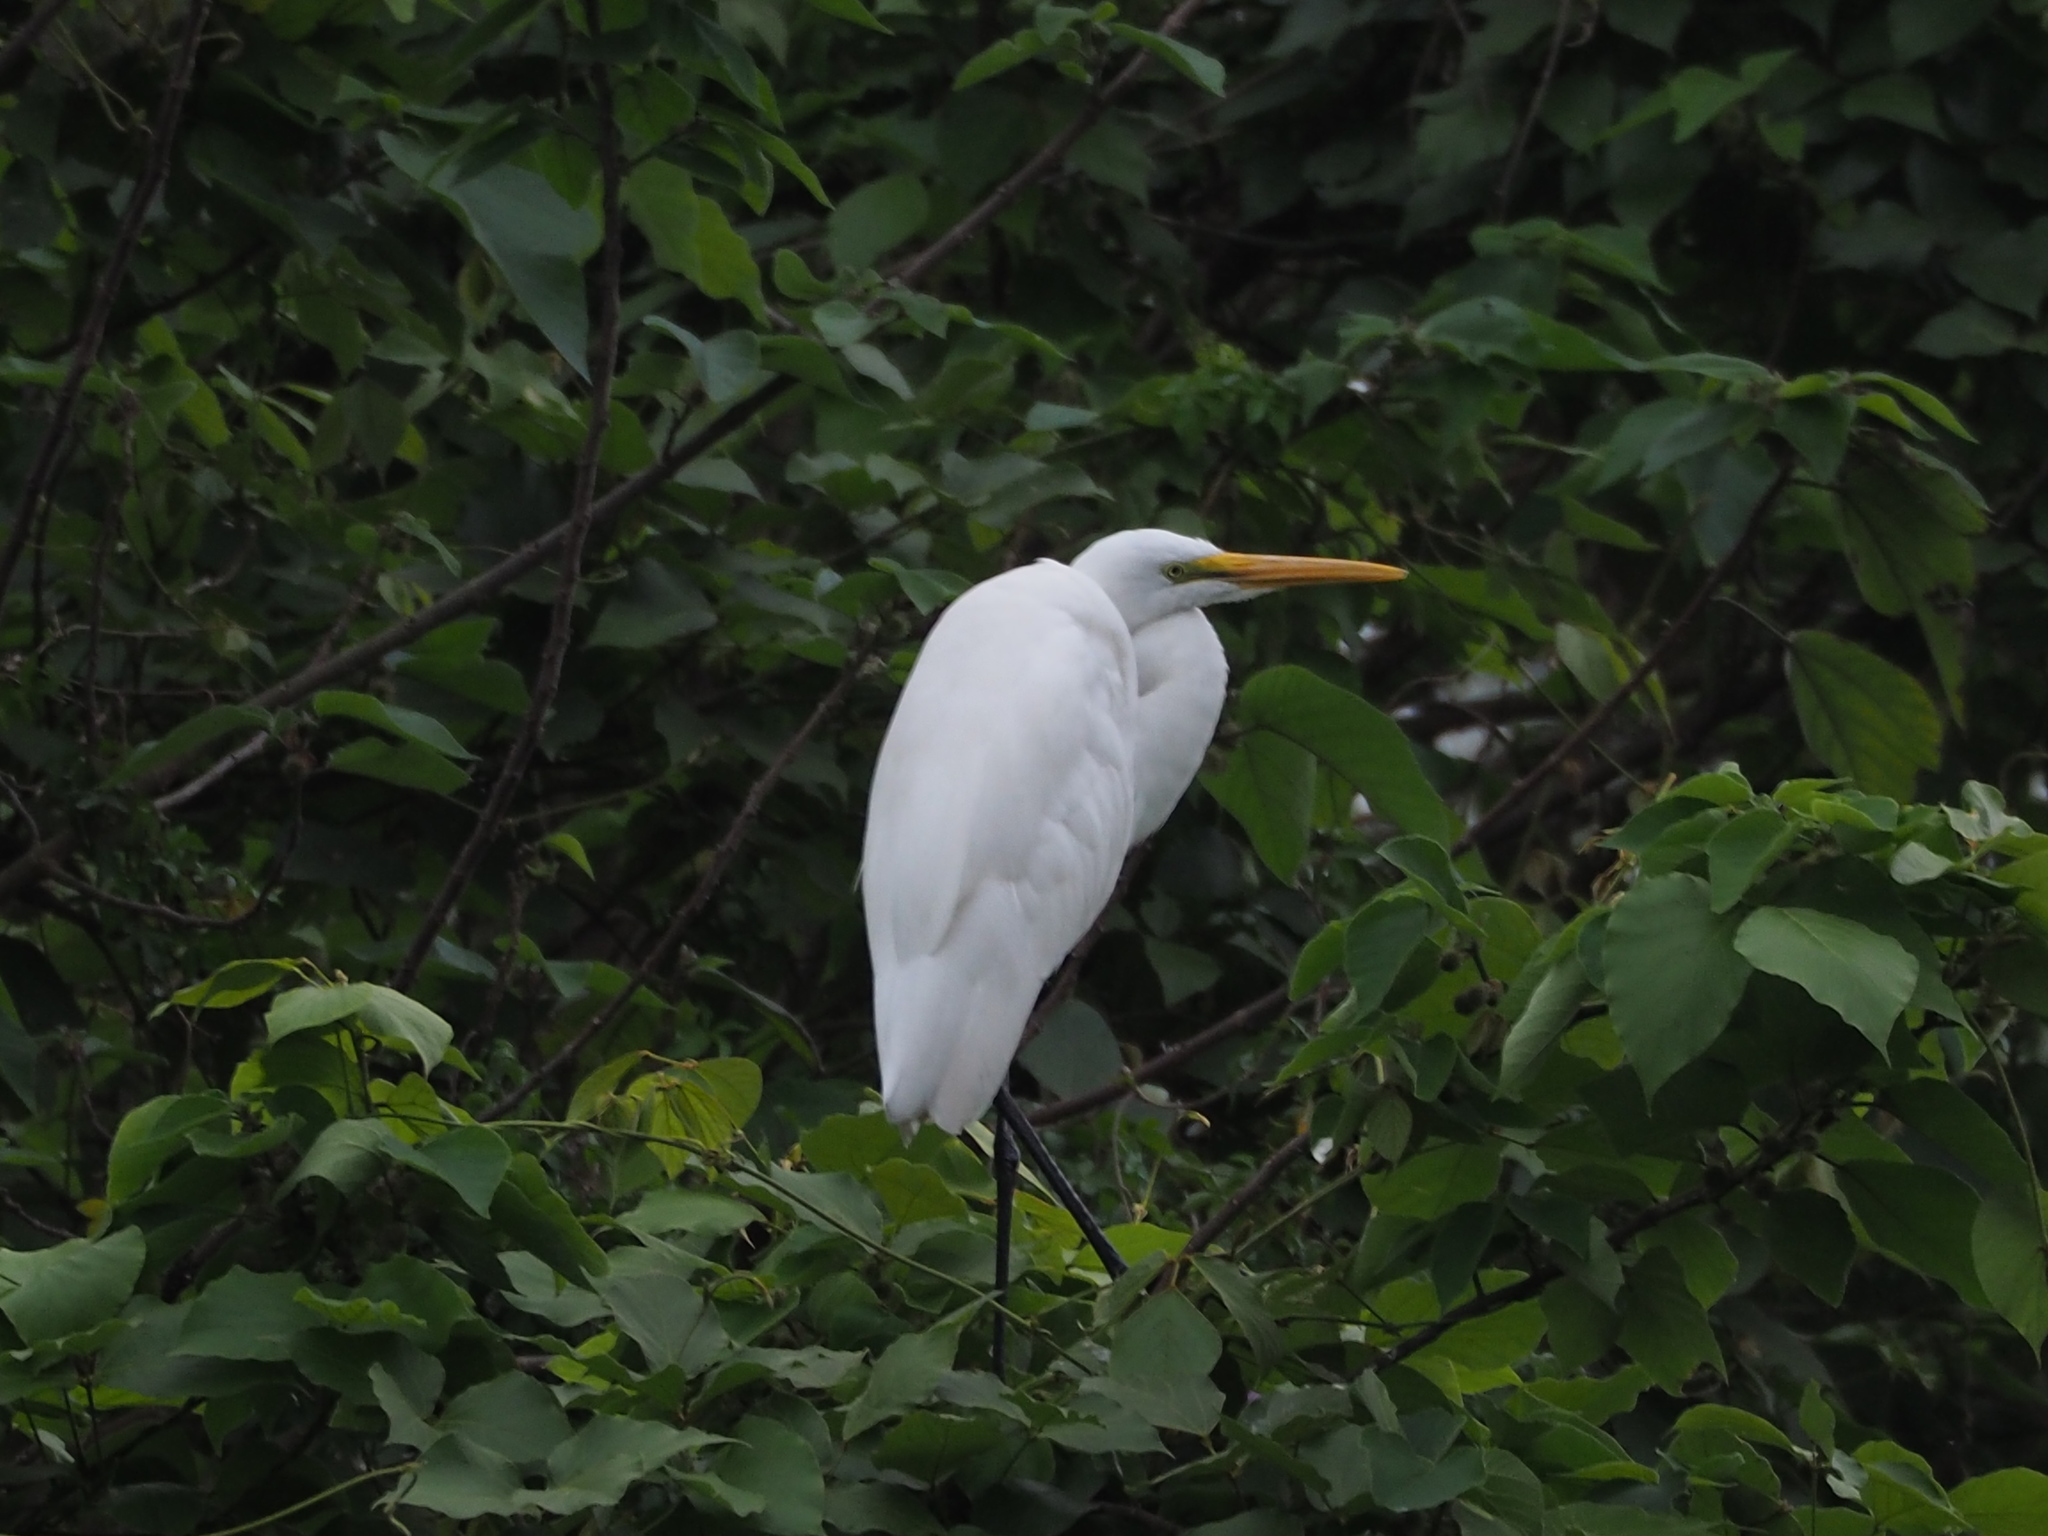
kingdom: Animalia
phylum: Chordata
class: Aves
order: Pelecaniformes
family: Ardeidae
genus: Ardea
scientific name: Ardea alba
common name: Great egret
